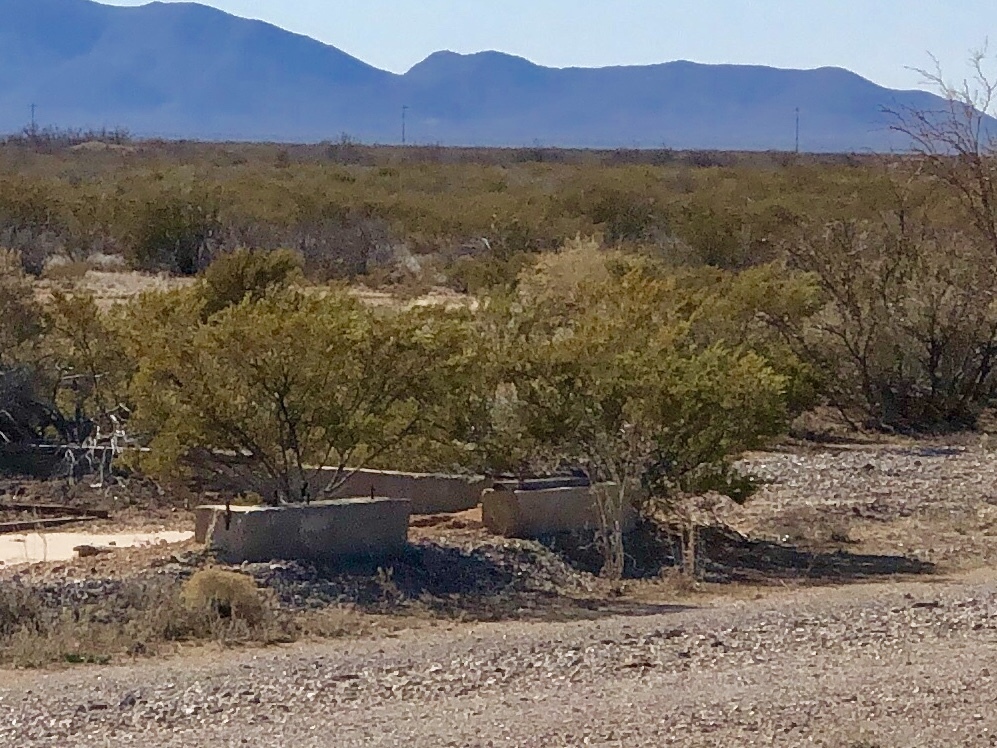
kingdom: Plantae
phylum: Tracheophyta
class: Magnoliopsida
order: Zygophyllales
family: Zygophyllaceae
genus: Larrea
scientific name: Larrea tridentata
